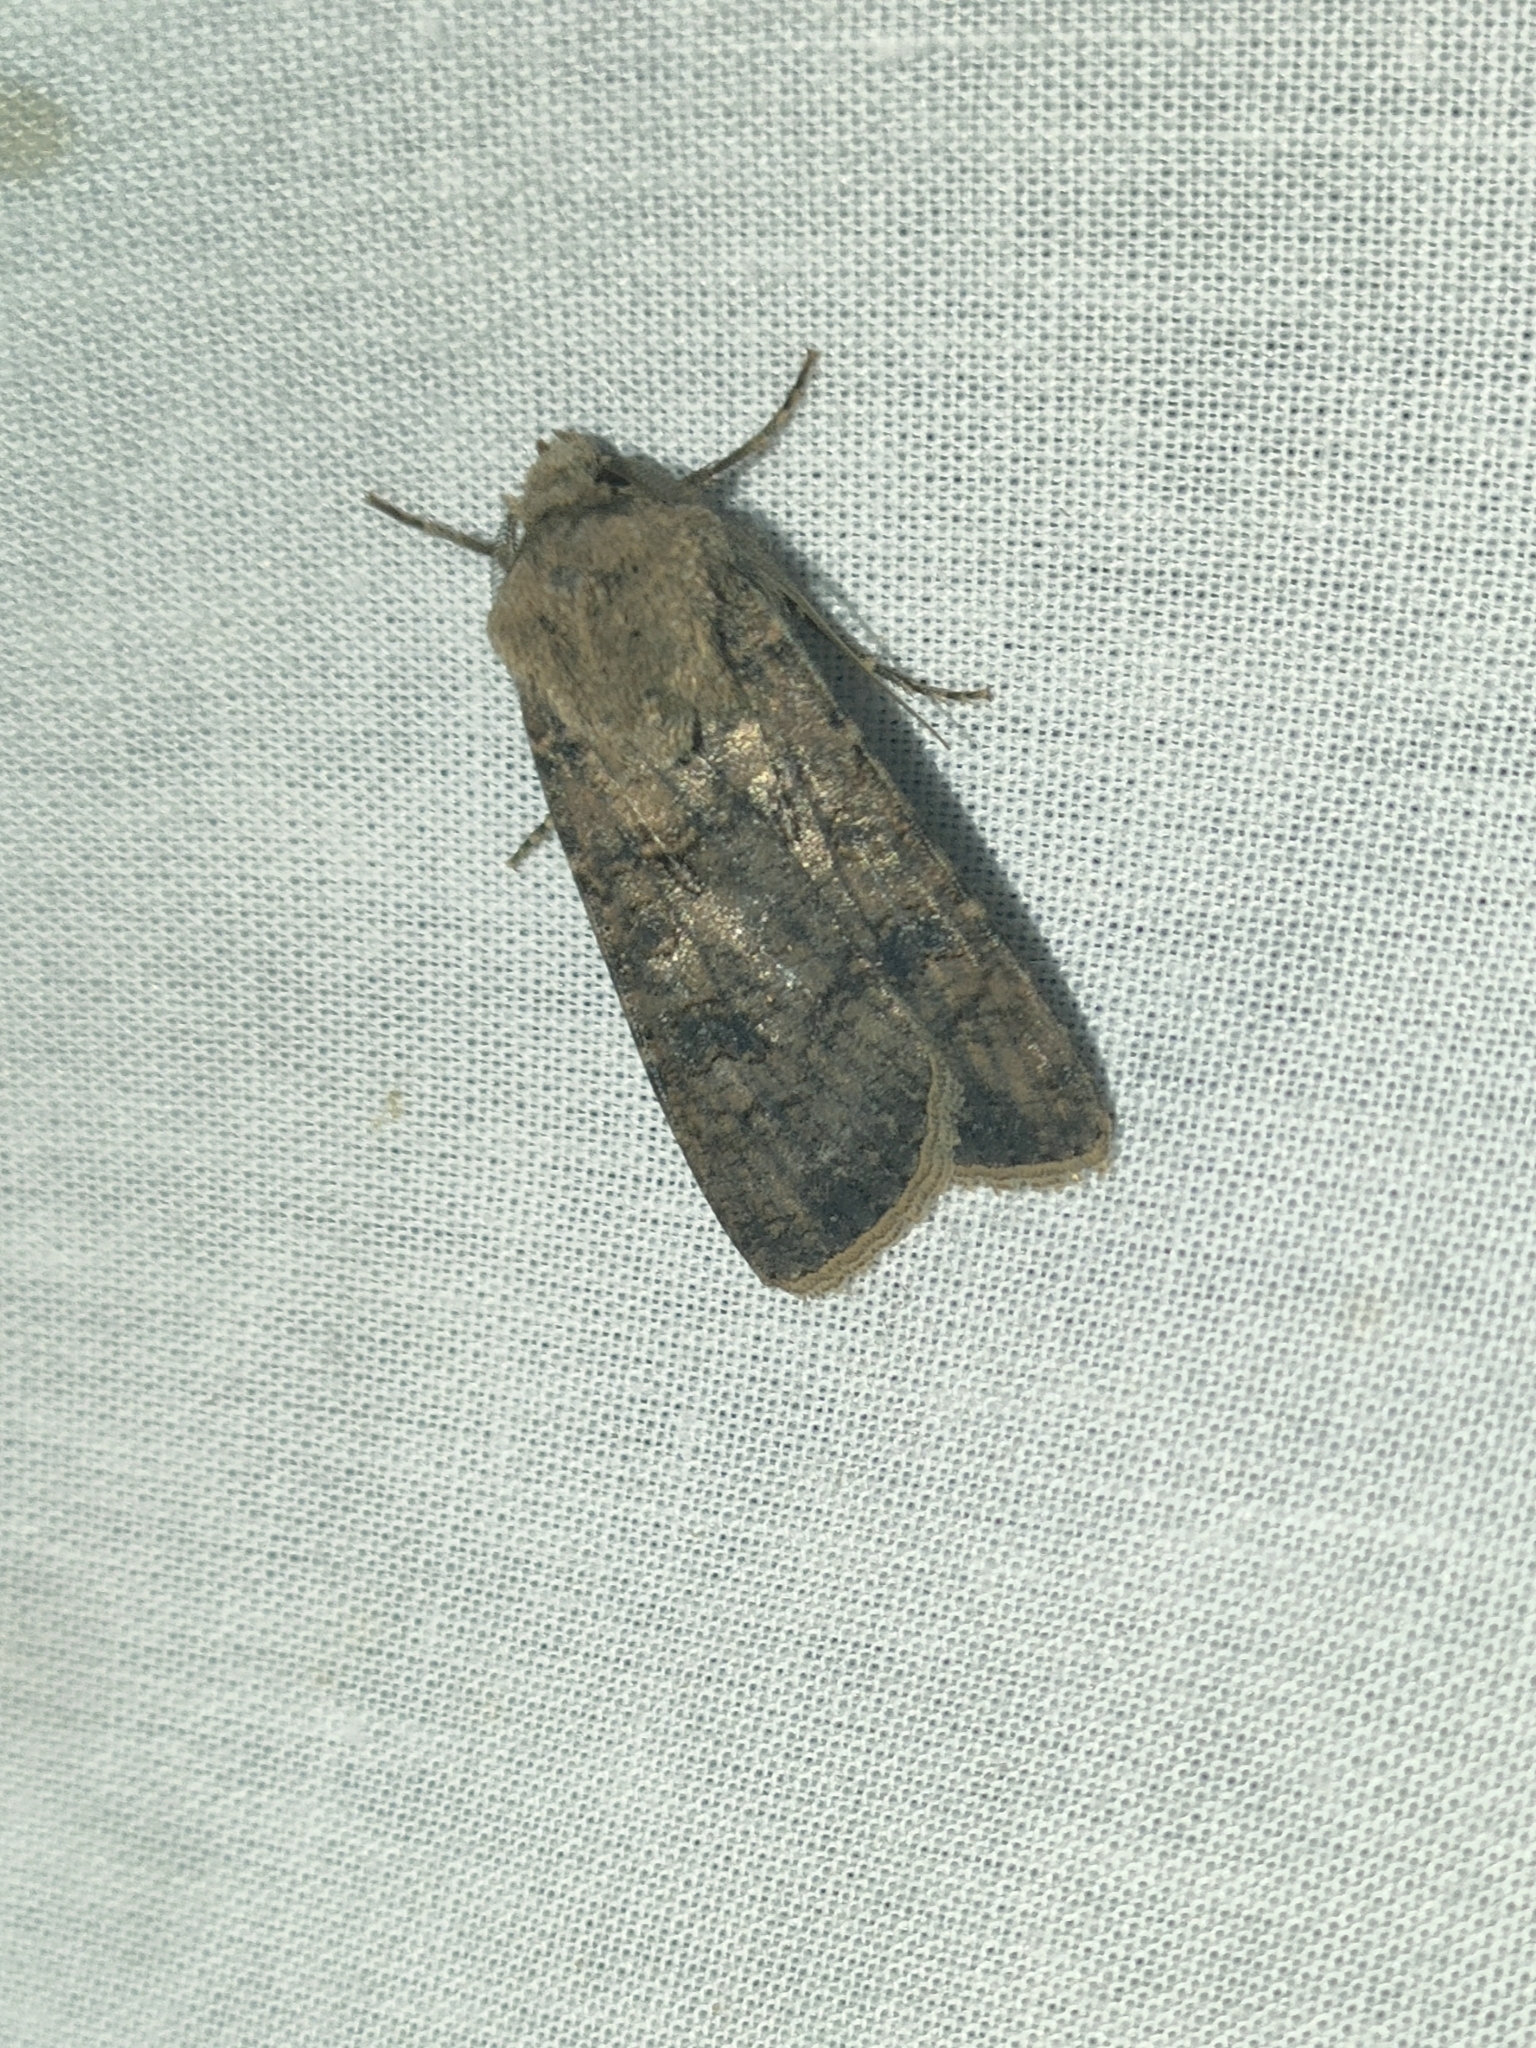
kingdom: Animalia
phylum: Arthropoda
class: Insecta
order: Lepidoptera
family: Noctuidae
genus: Agrotis
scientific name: Agrotis segetum
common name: Turnip moth
